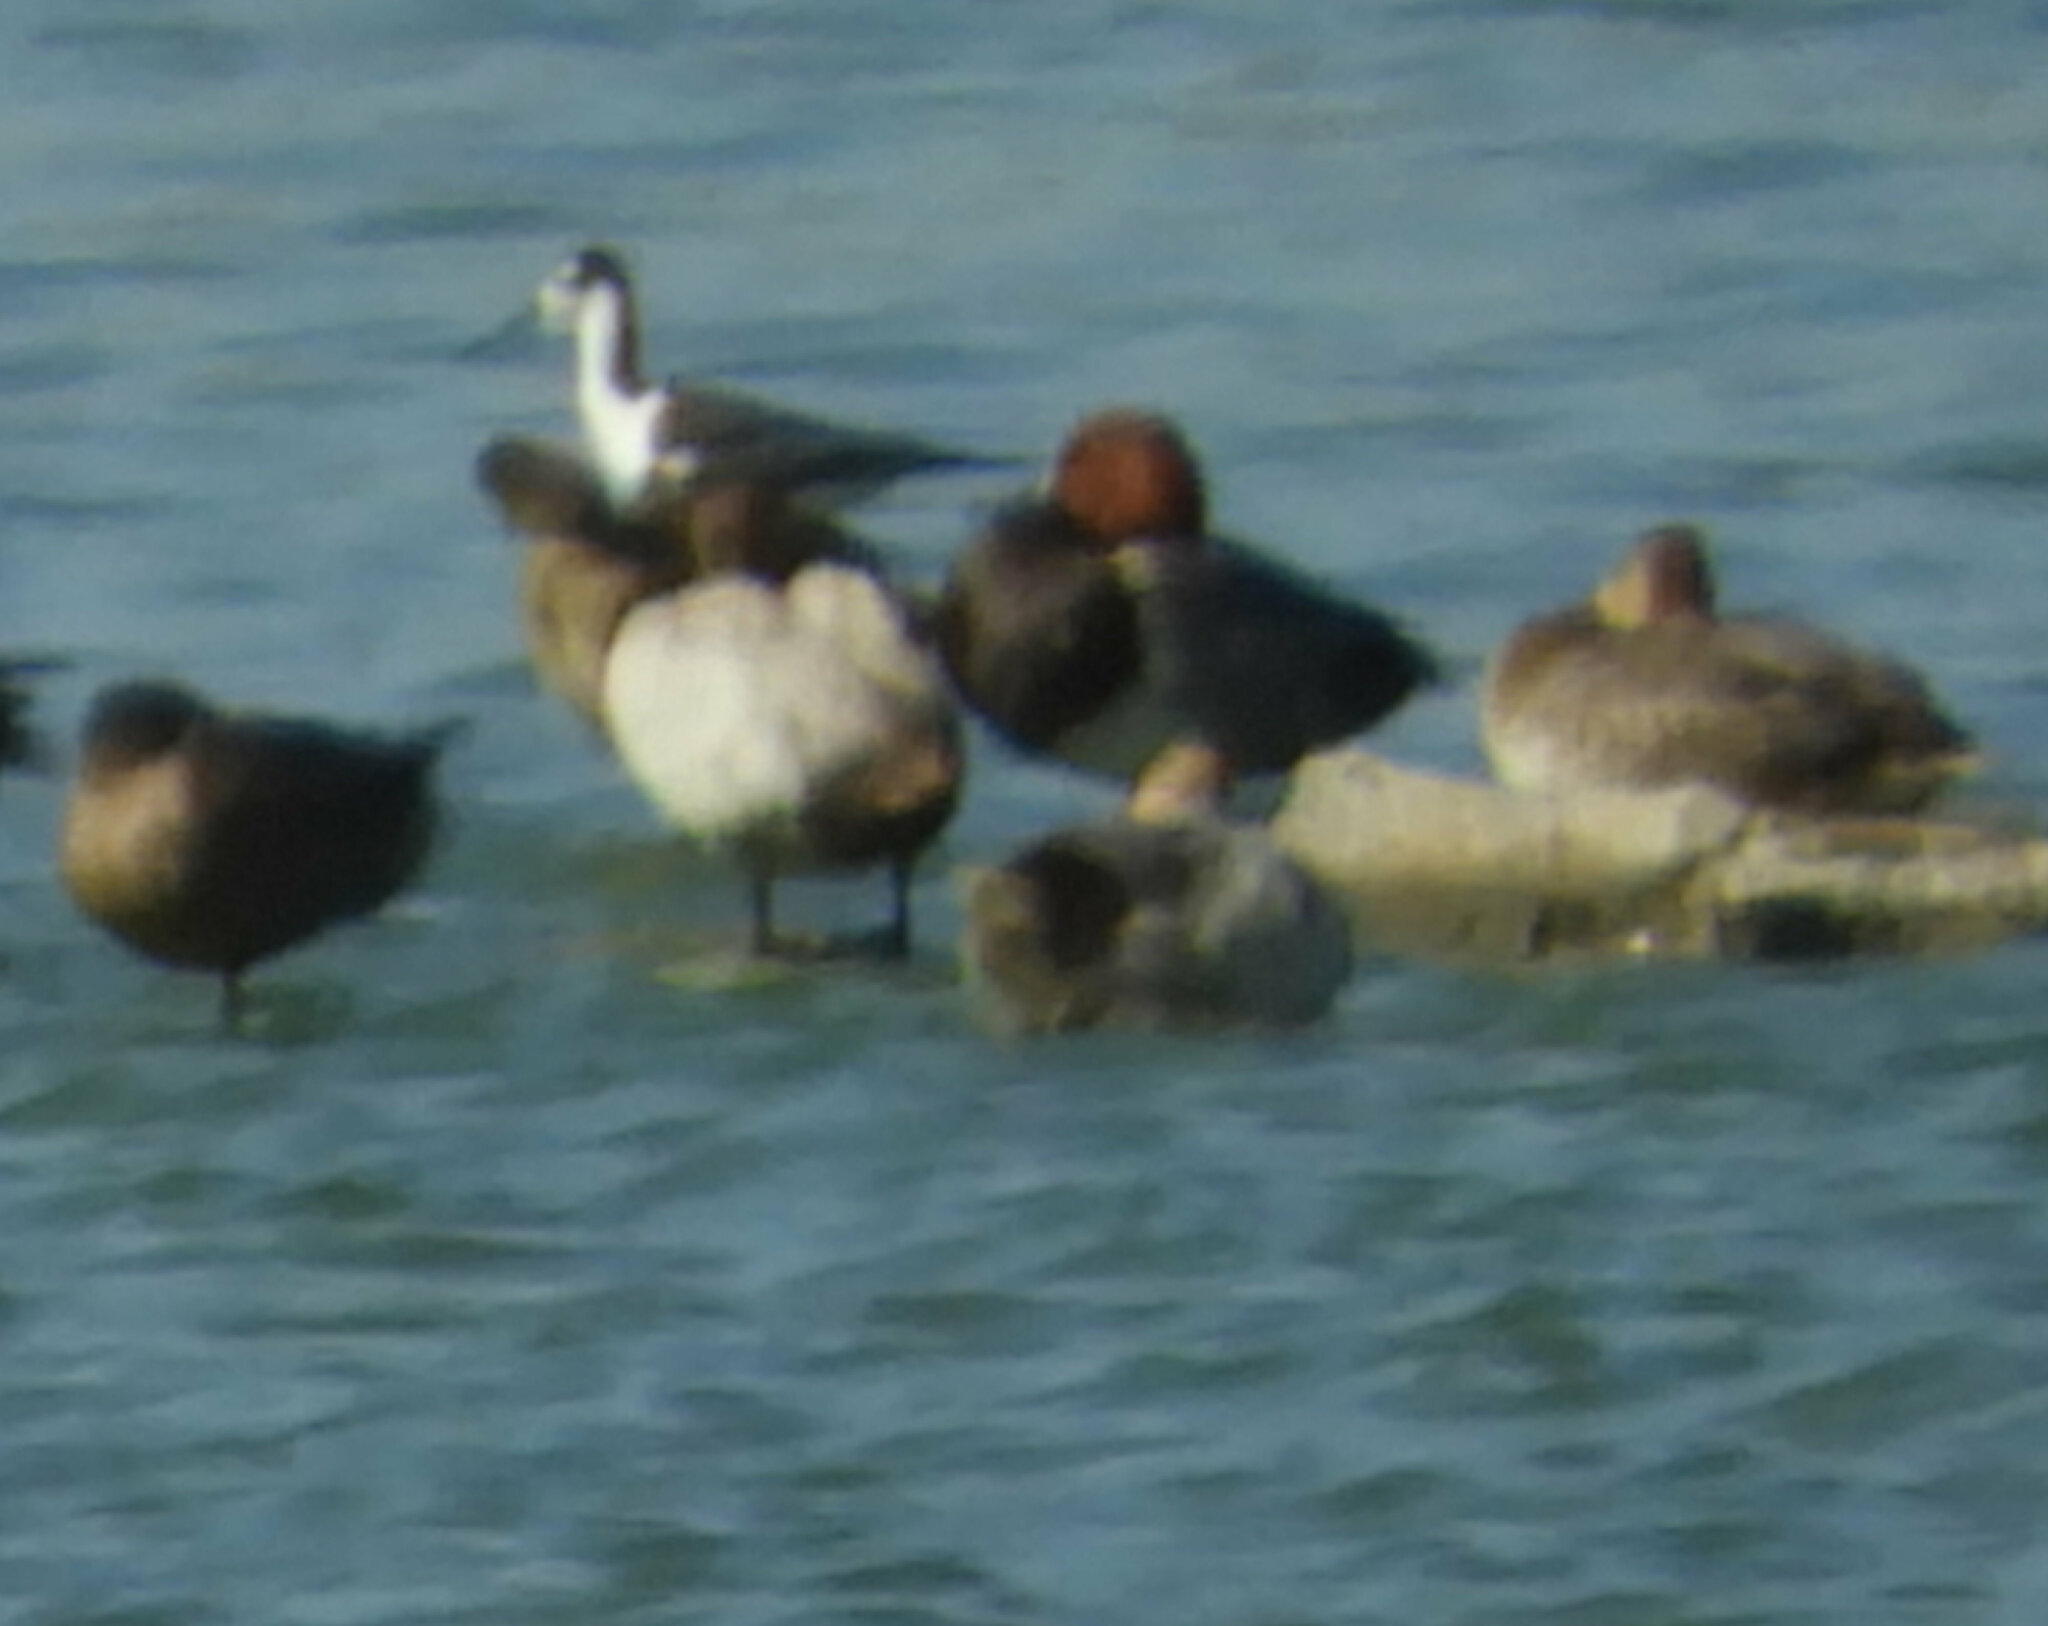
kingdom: Animalia
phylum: Chordata
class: Aves
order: Anseriformes
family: Anatidae
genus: Aythya
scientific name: Aythya americana
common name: Redhead
